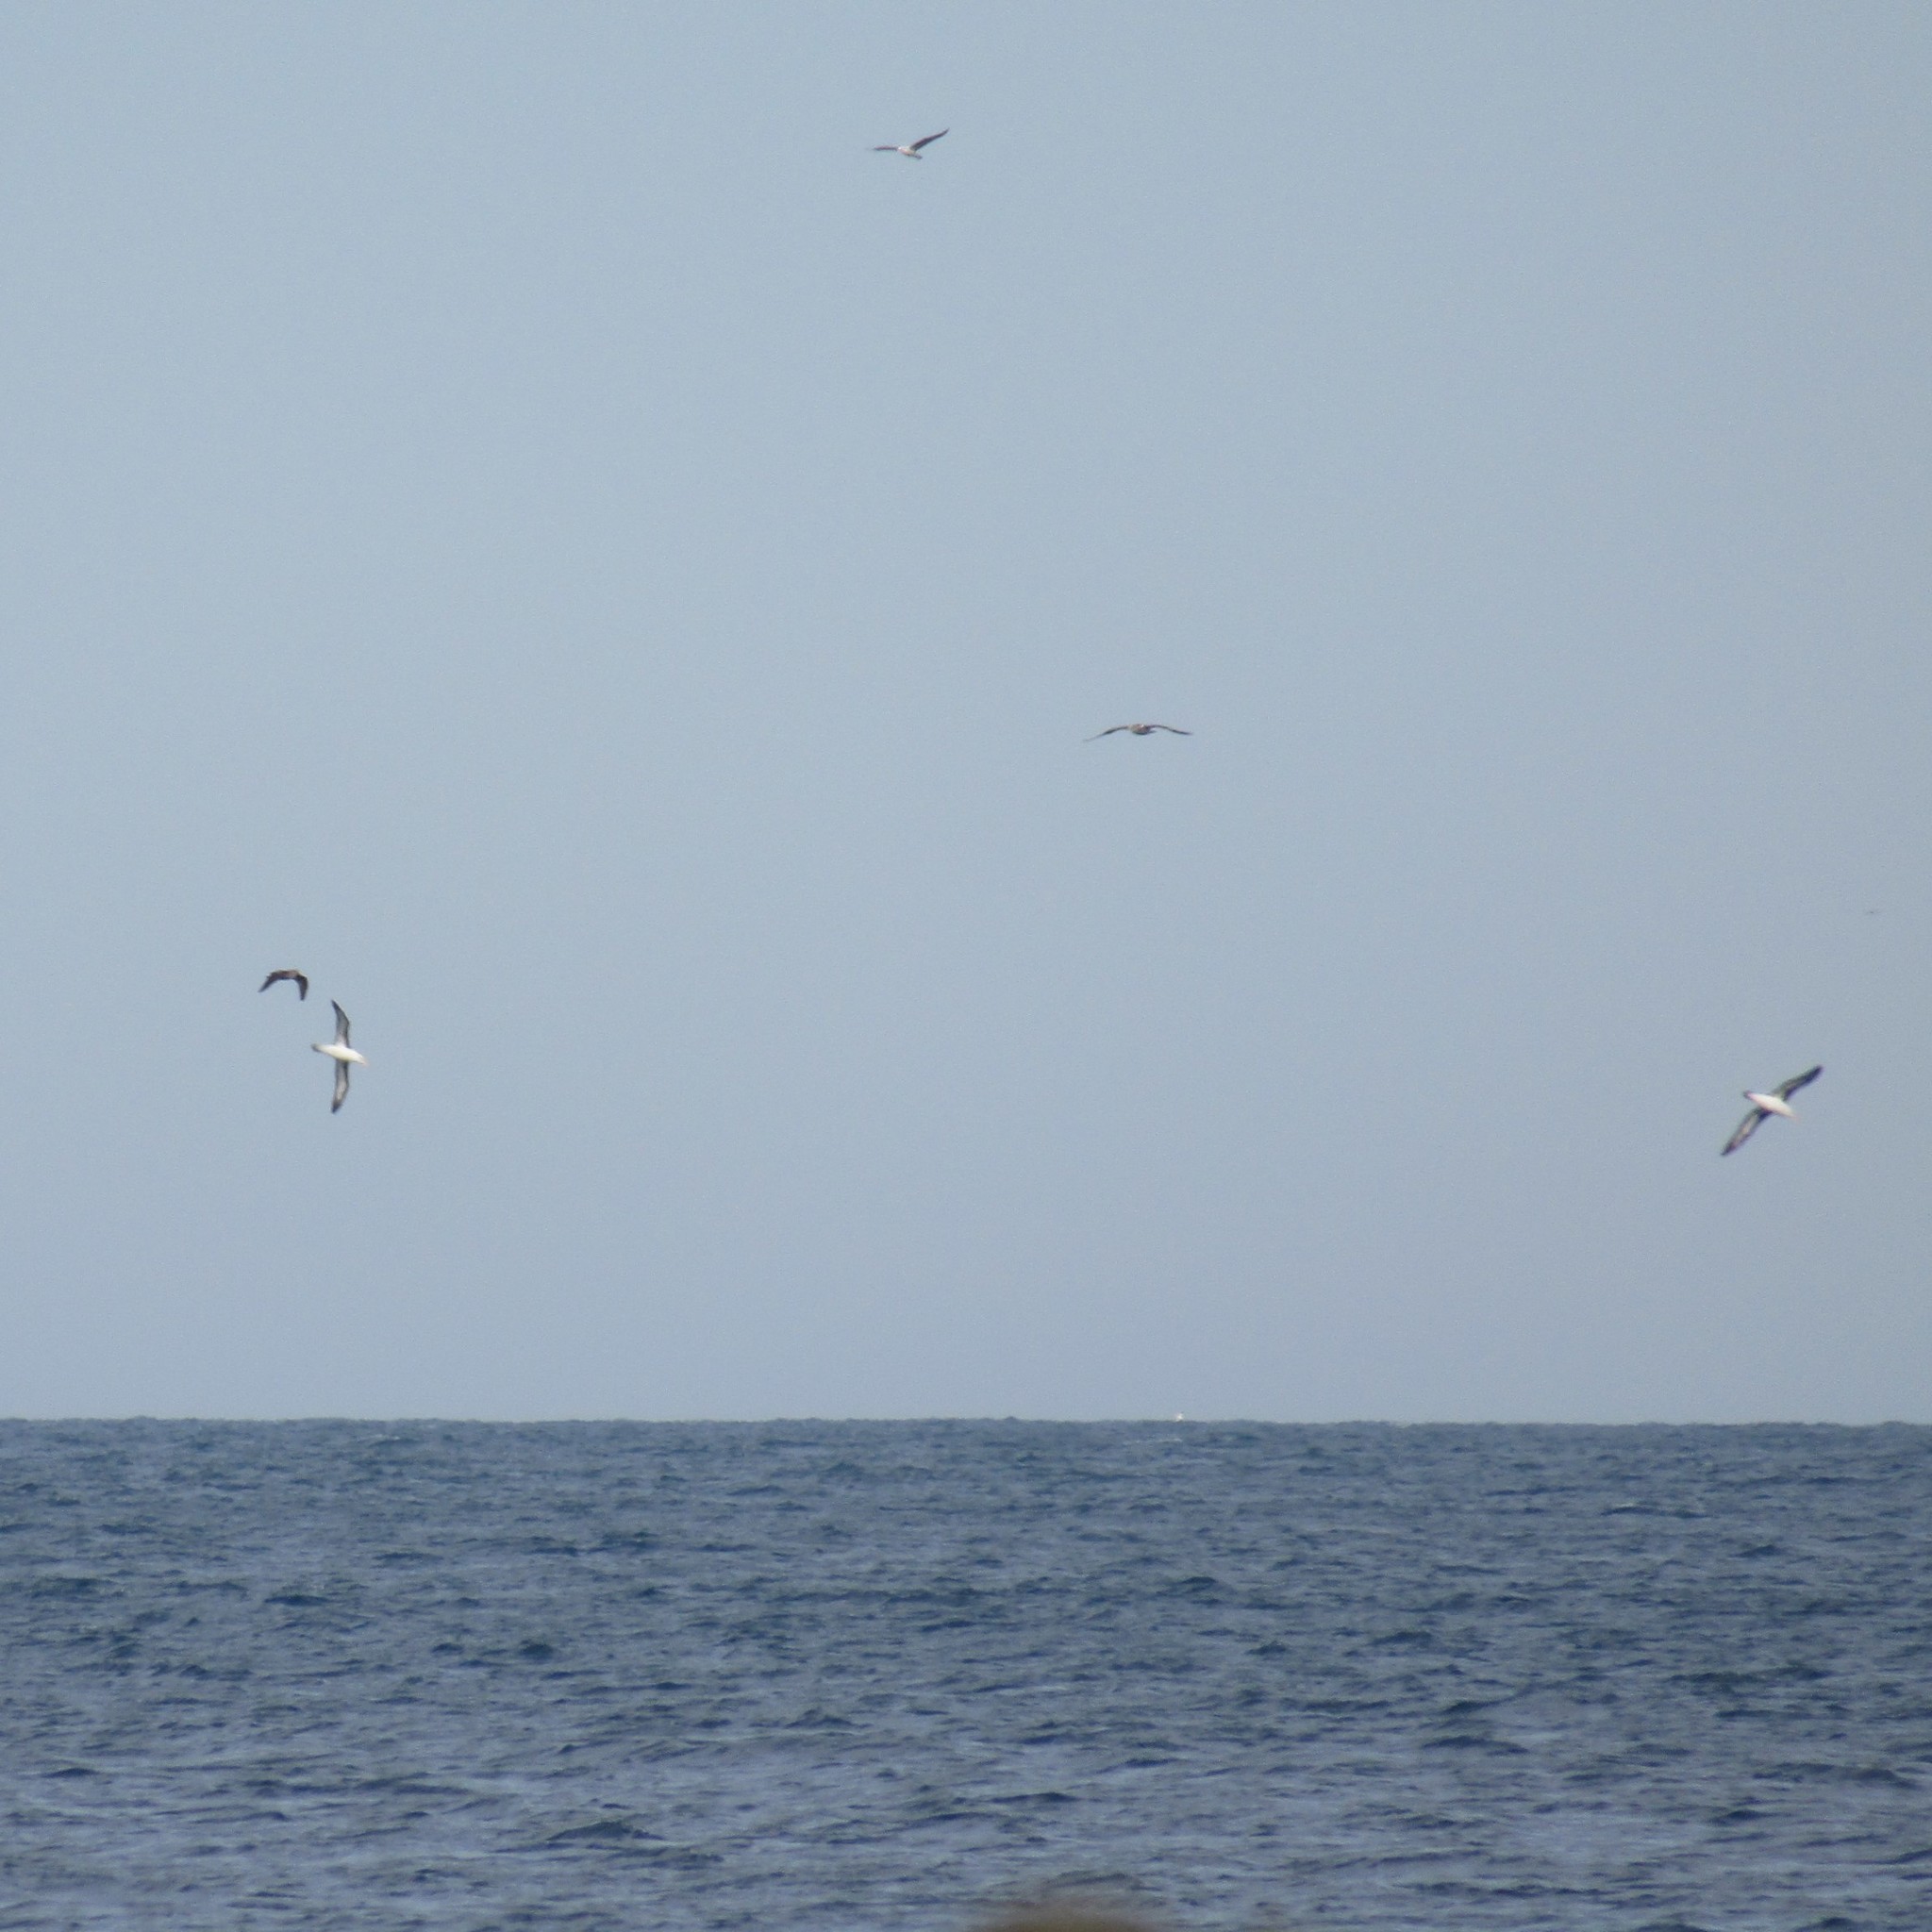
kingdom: Animalia
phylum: Chordata
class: Aves
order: Procellariiformes
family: Diomedeidae
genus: Thalassarche
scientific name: Thalassarche melanophris
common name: Black-browed albatross
